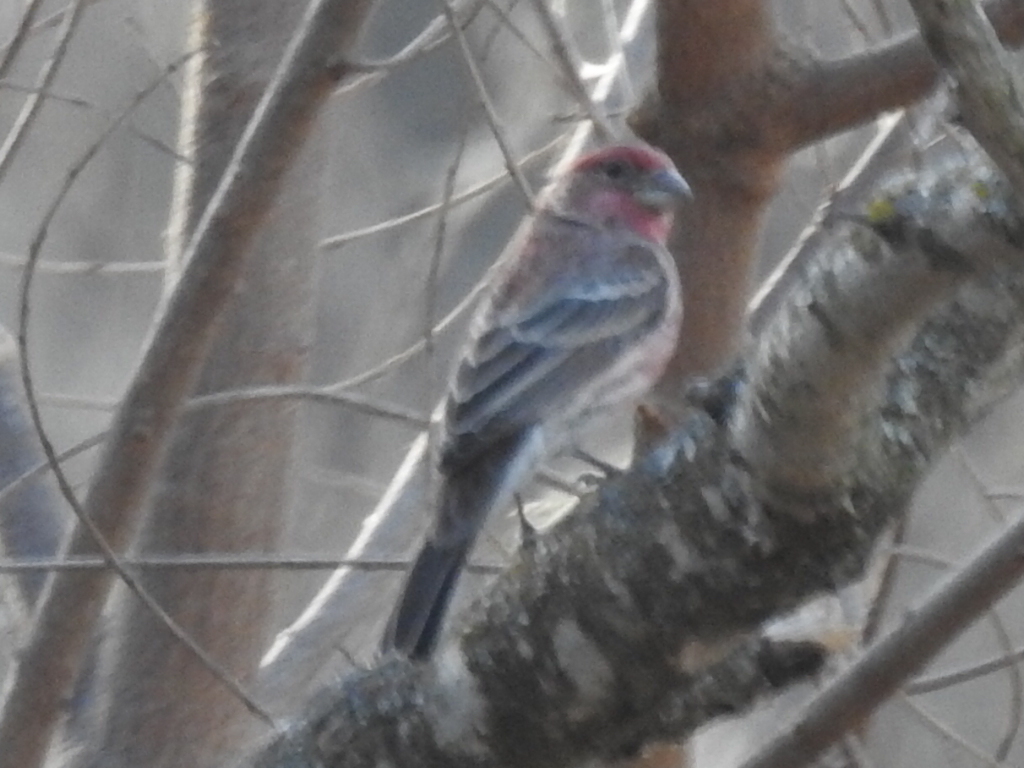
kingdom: Animalia
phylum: Chordata
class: Aves
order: Passeriformes
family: Fringillidae
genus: Haemorhous
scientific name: Haemorhous mexicanus
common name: House finch
